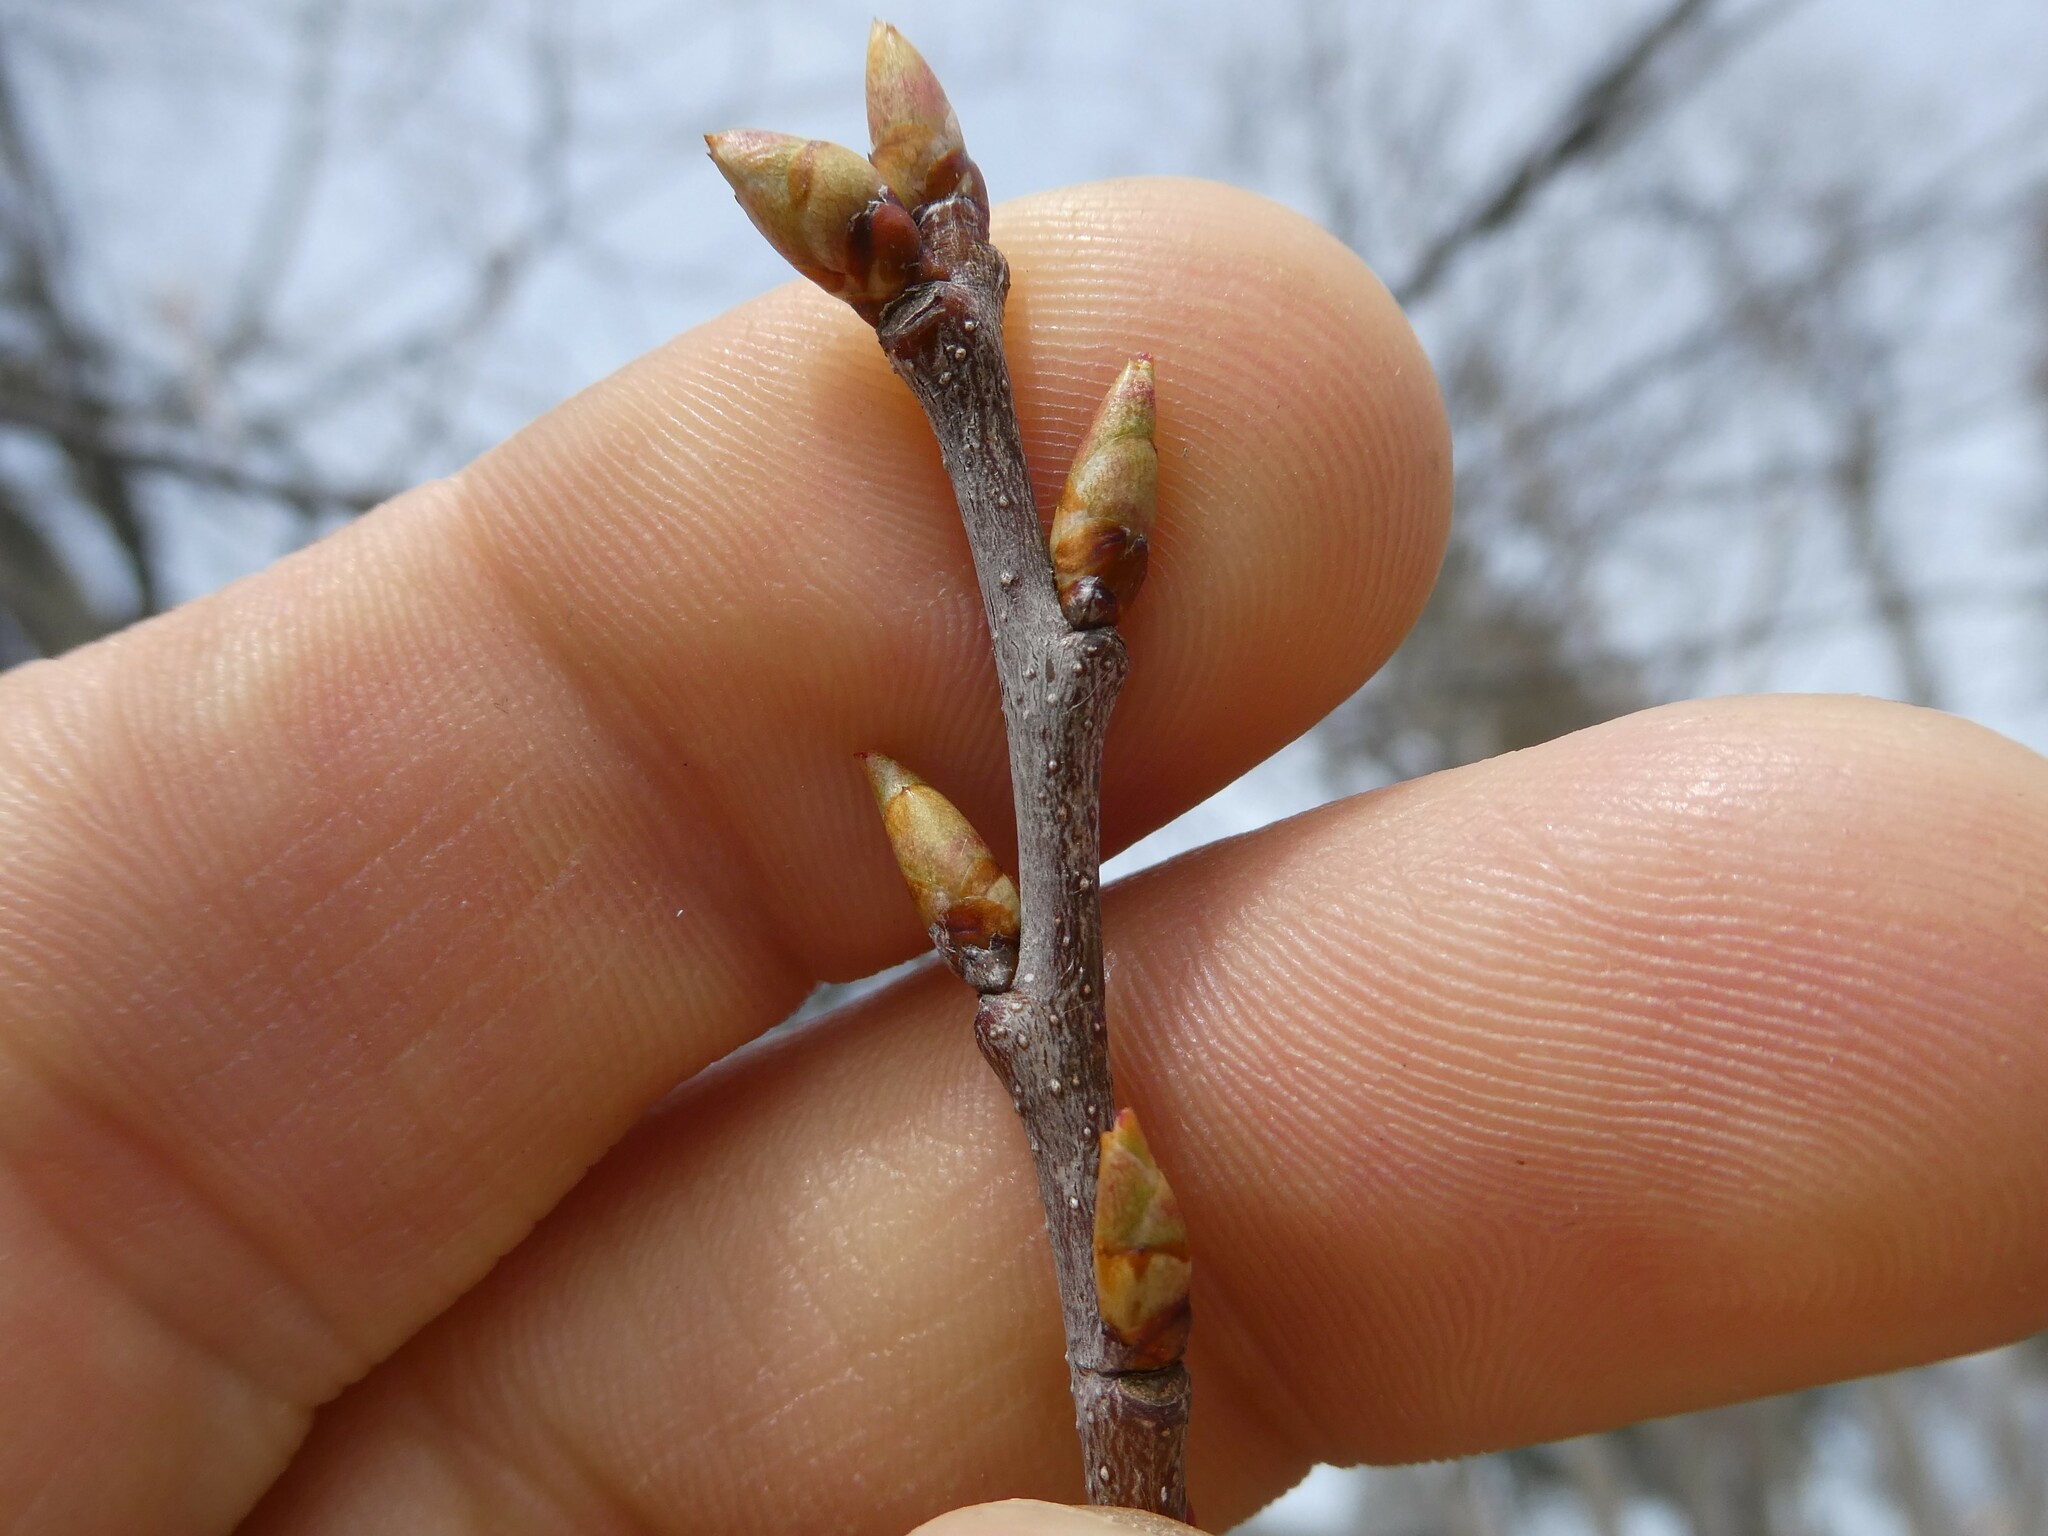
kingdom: Plantae
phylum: Tracheophyta
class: Magnoliopsida
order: Rosales
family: Rosaceae
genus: Prunus
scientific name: Prunus serotina
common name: Black cherry
